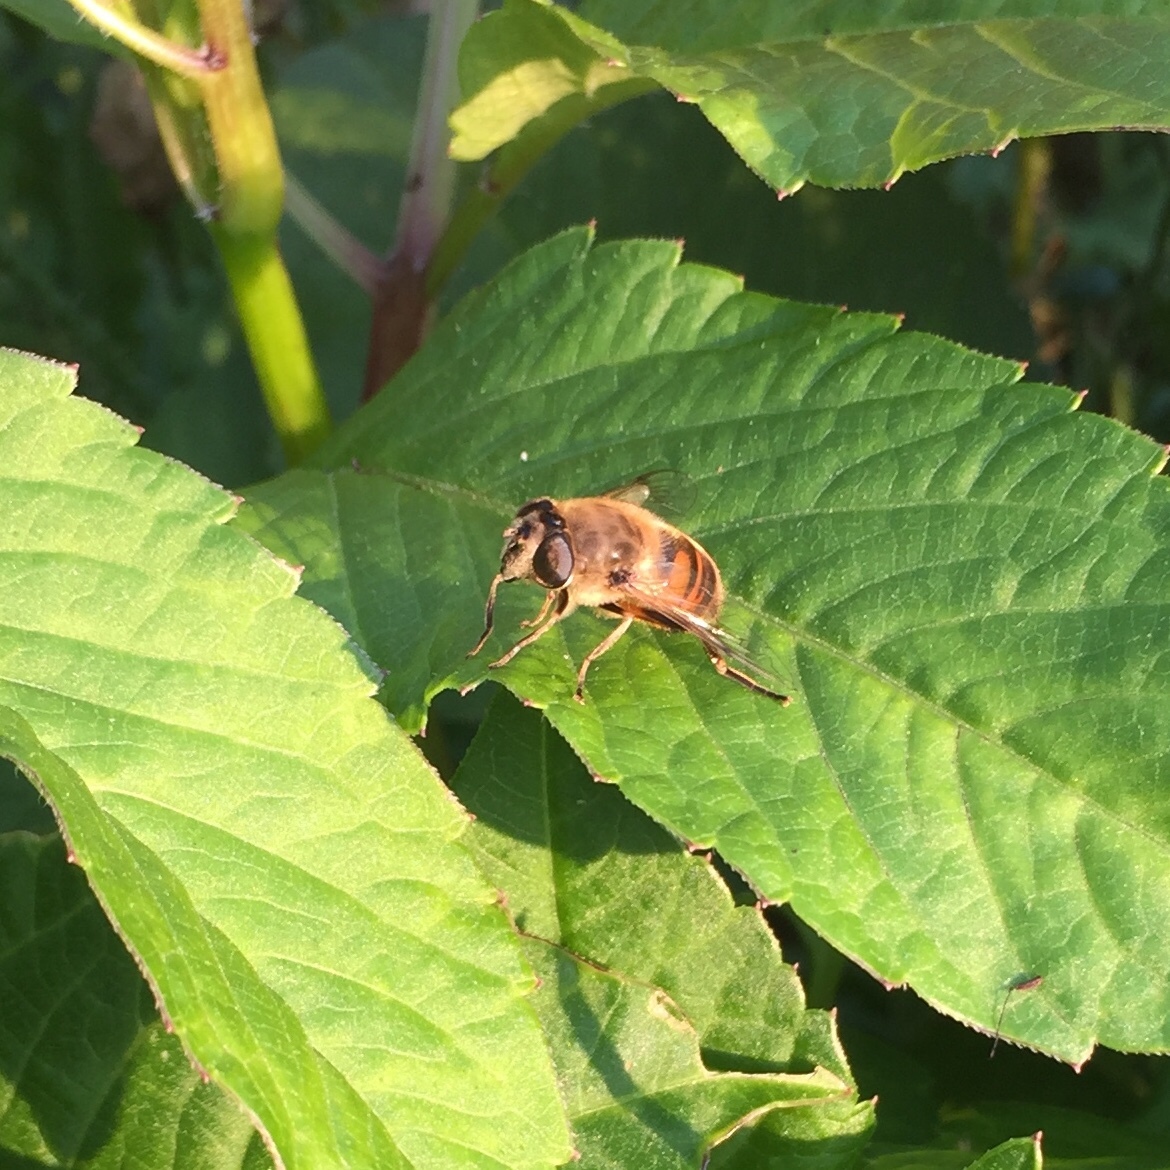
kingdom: Animalia
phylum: Arthropoda
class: Insecta
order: Diptera
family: Syrphidae
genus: Eristalis
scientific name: Eristalis tenax
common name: Drone fly
